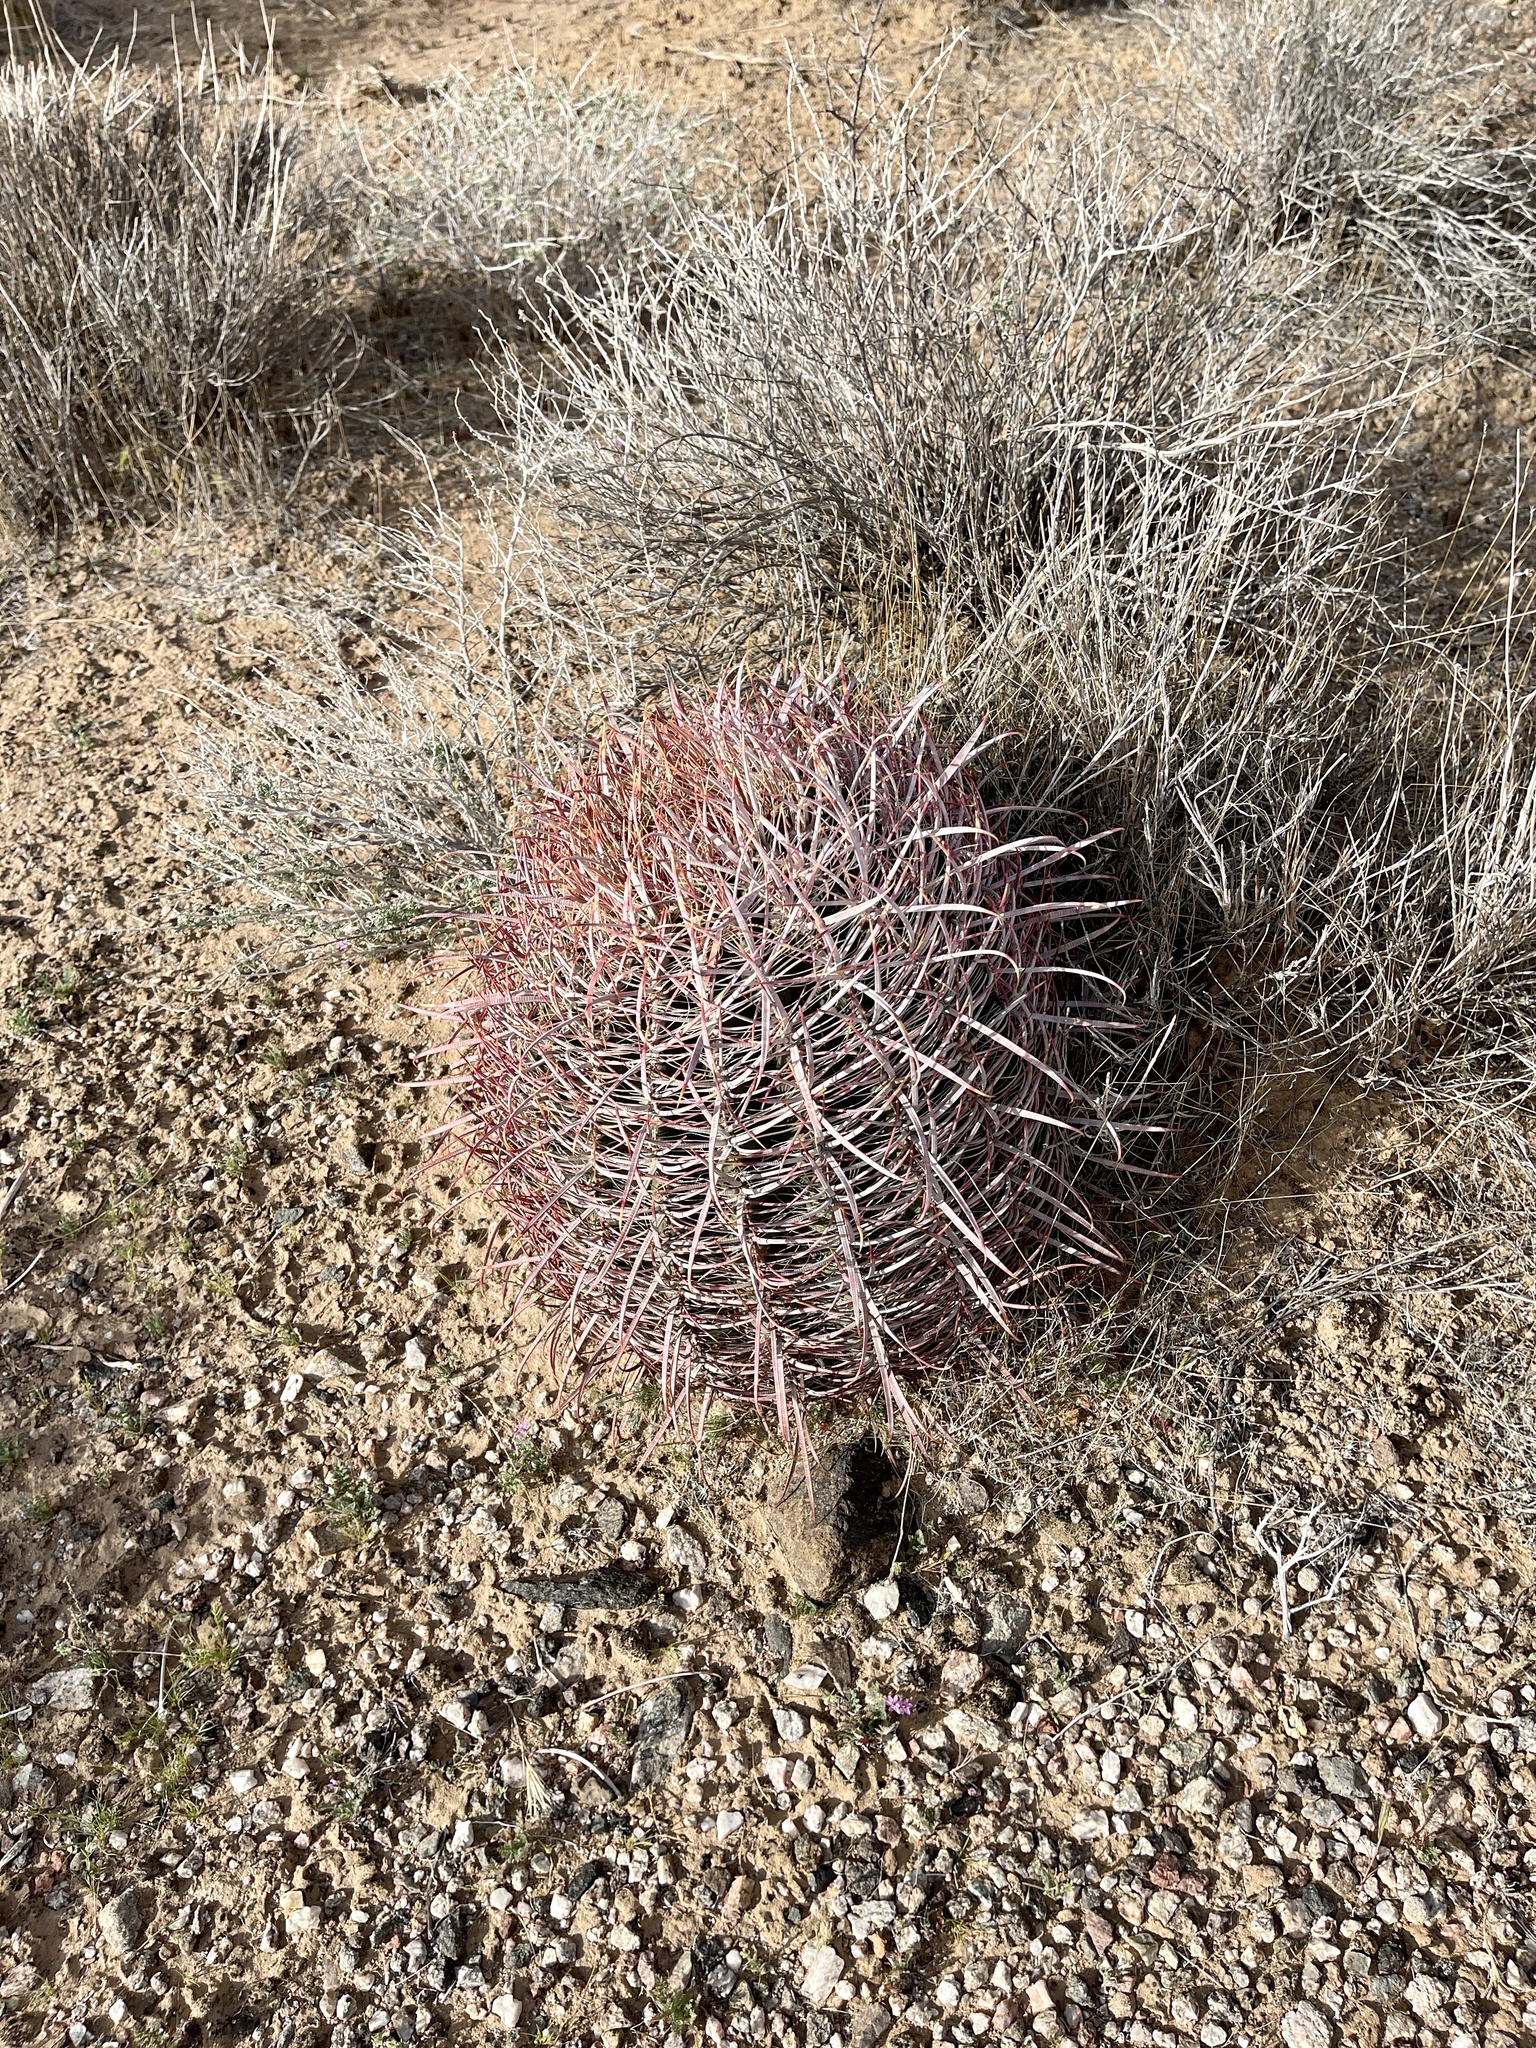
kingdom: Plantae
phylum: Tracheophyta
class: Magnoliopsida
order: Caryophyllales
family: Cactaceae
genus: Ferocactus
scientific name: Ferocactus cylindraceus
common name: California barrel cactus
